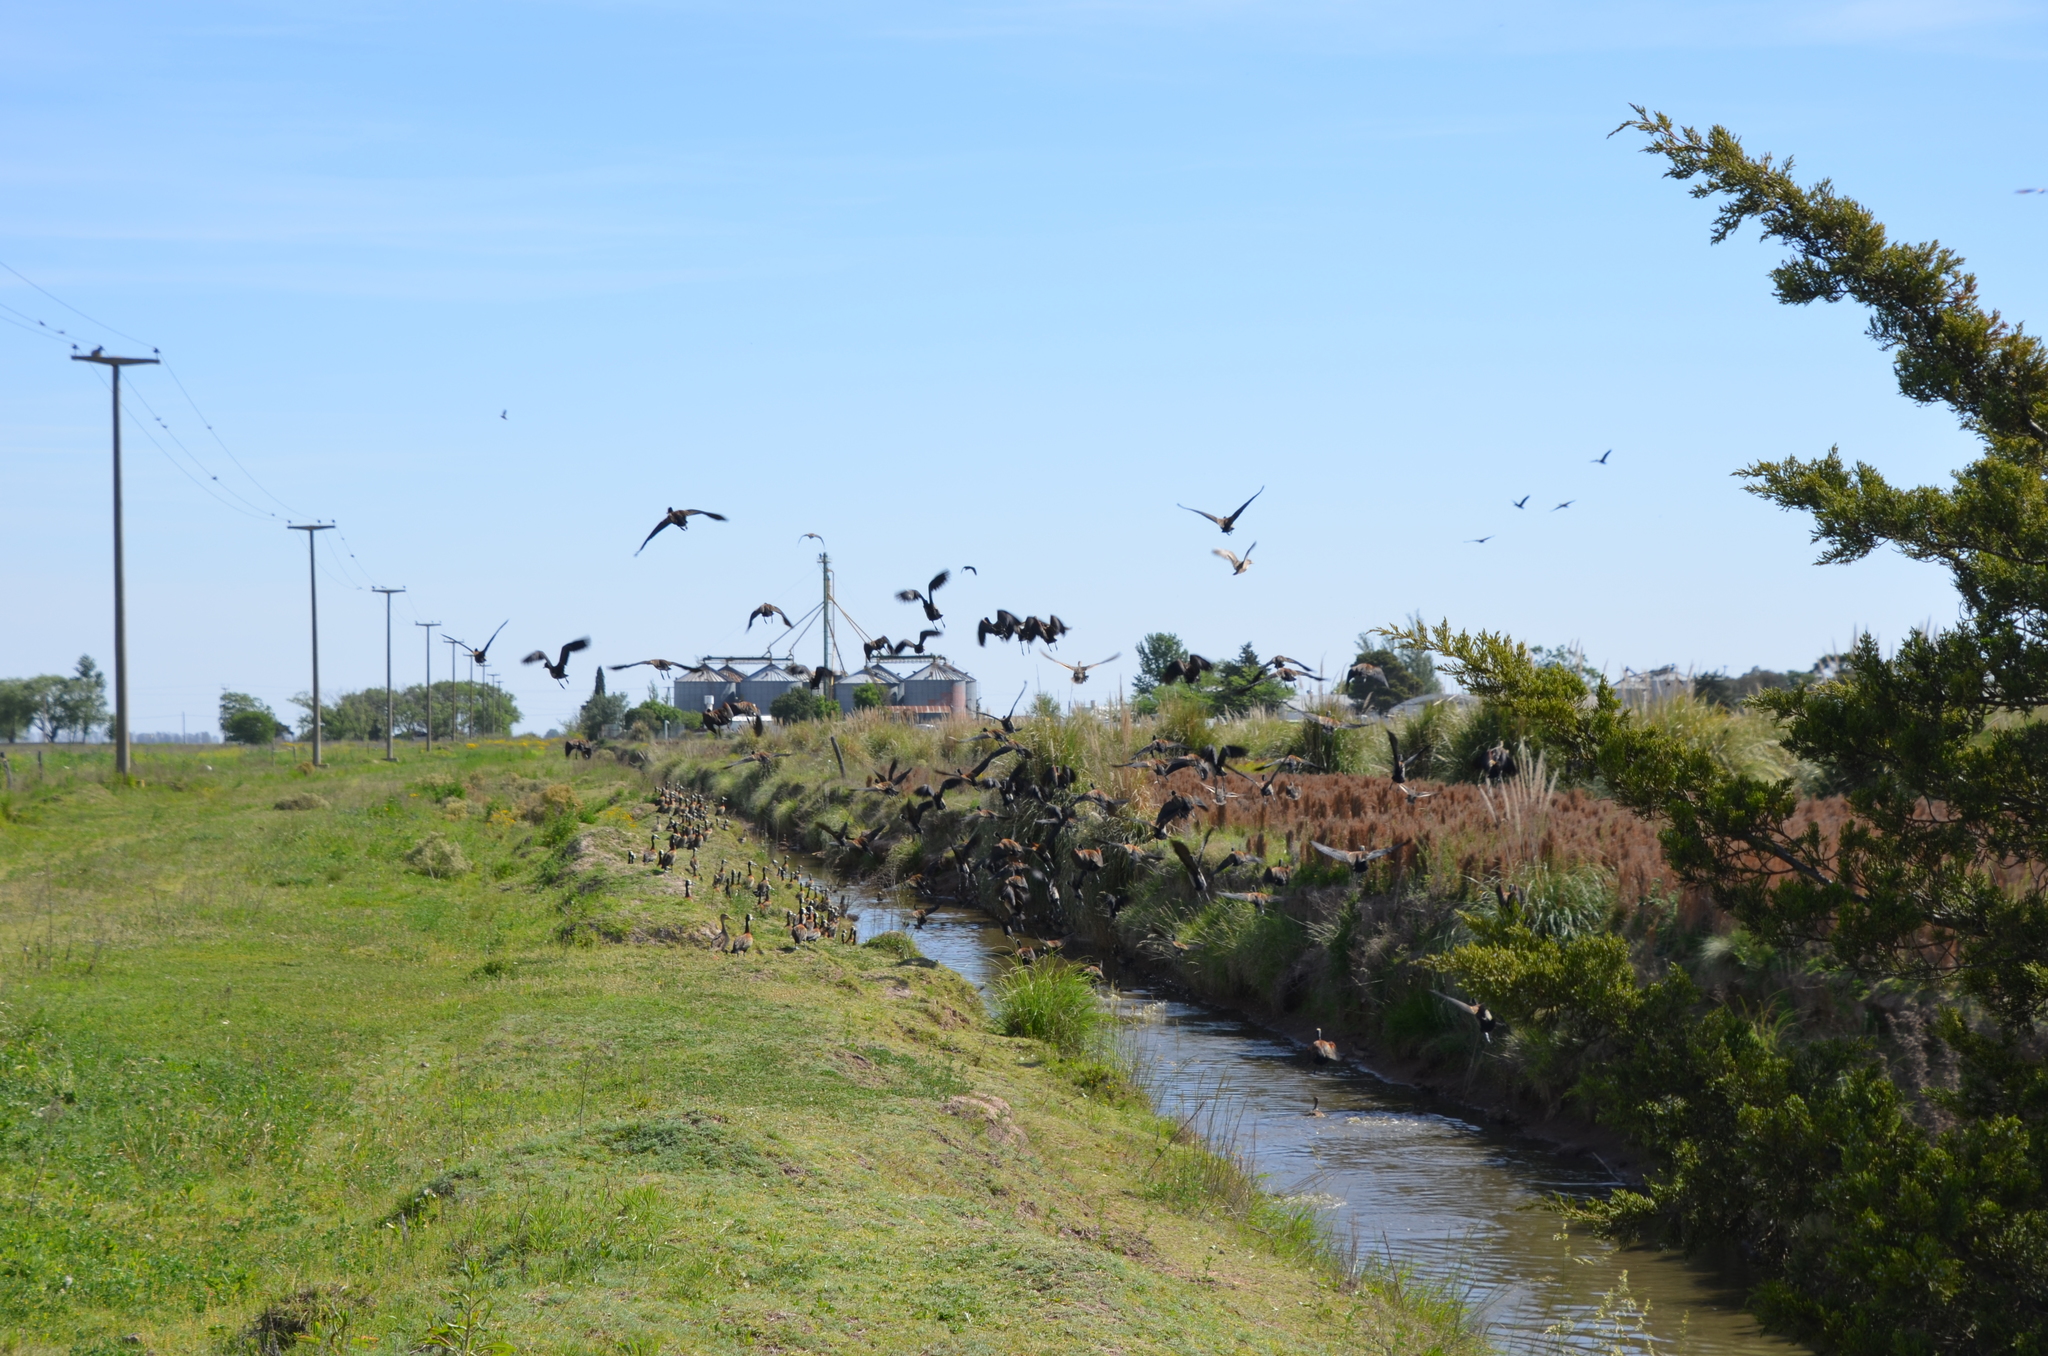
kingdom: Animalia
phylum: Chordata
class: Aves
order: Anseriformes
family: Anatidae
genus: Dendrocygna
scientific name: Dendrocygna viduata
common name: White-faced whistling duck
